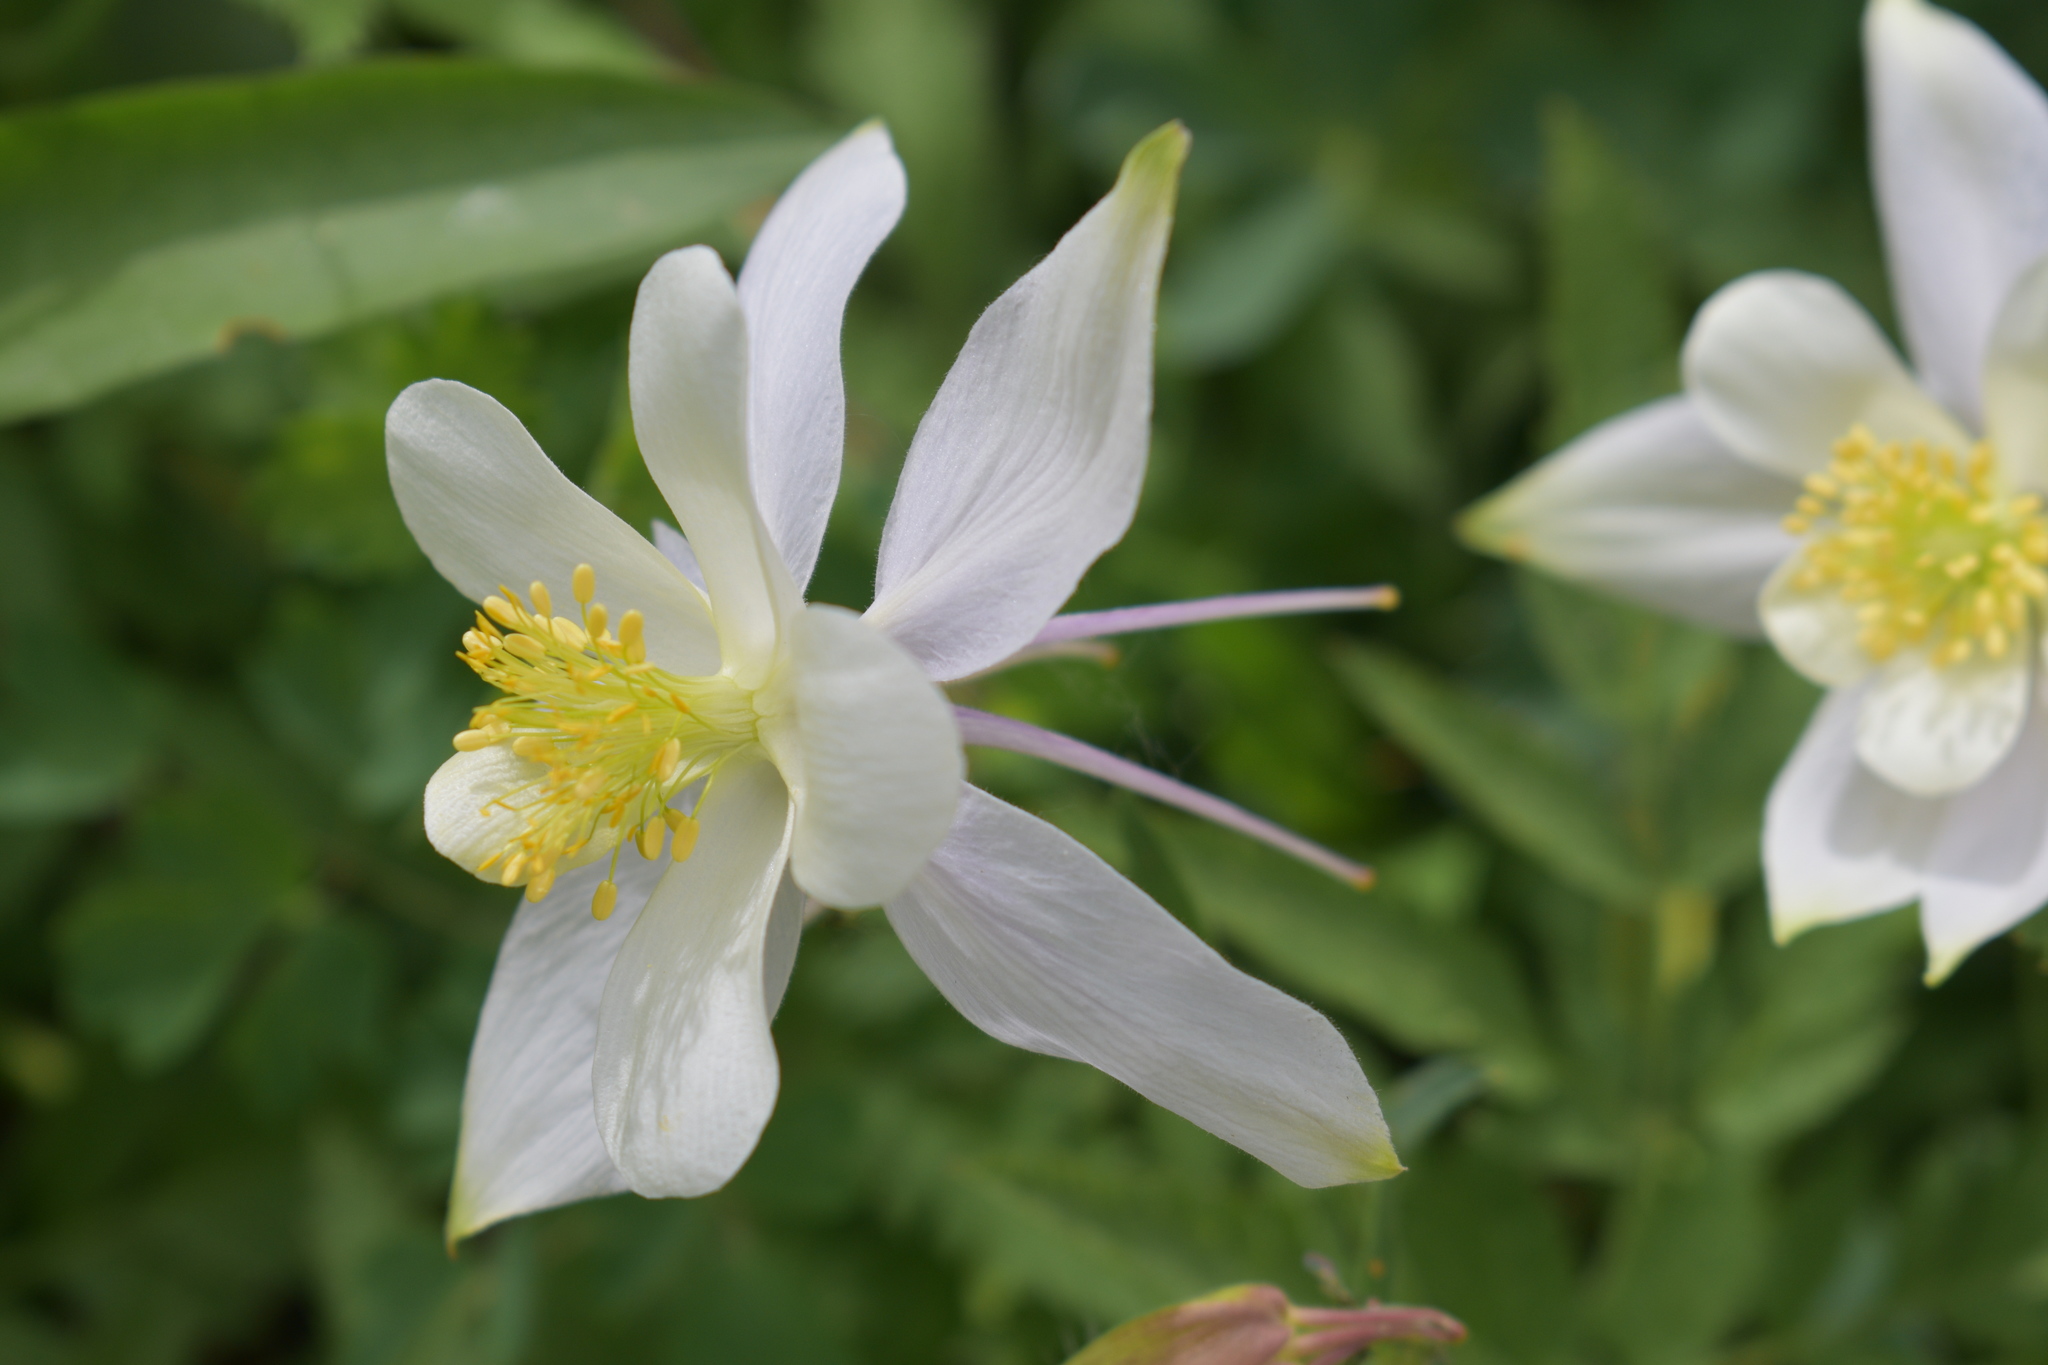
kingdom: Plantae
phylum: Tracheophyta
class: Magnoliopsida
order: Ranunculales
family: Ranunculaceae
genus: Aquilegia
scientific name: Aquilegia coerulea
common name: Rocky mountain columbine
